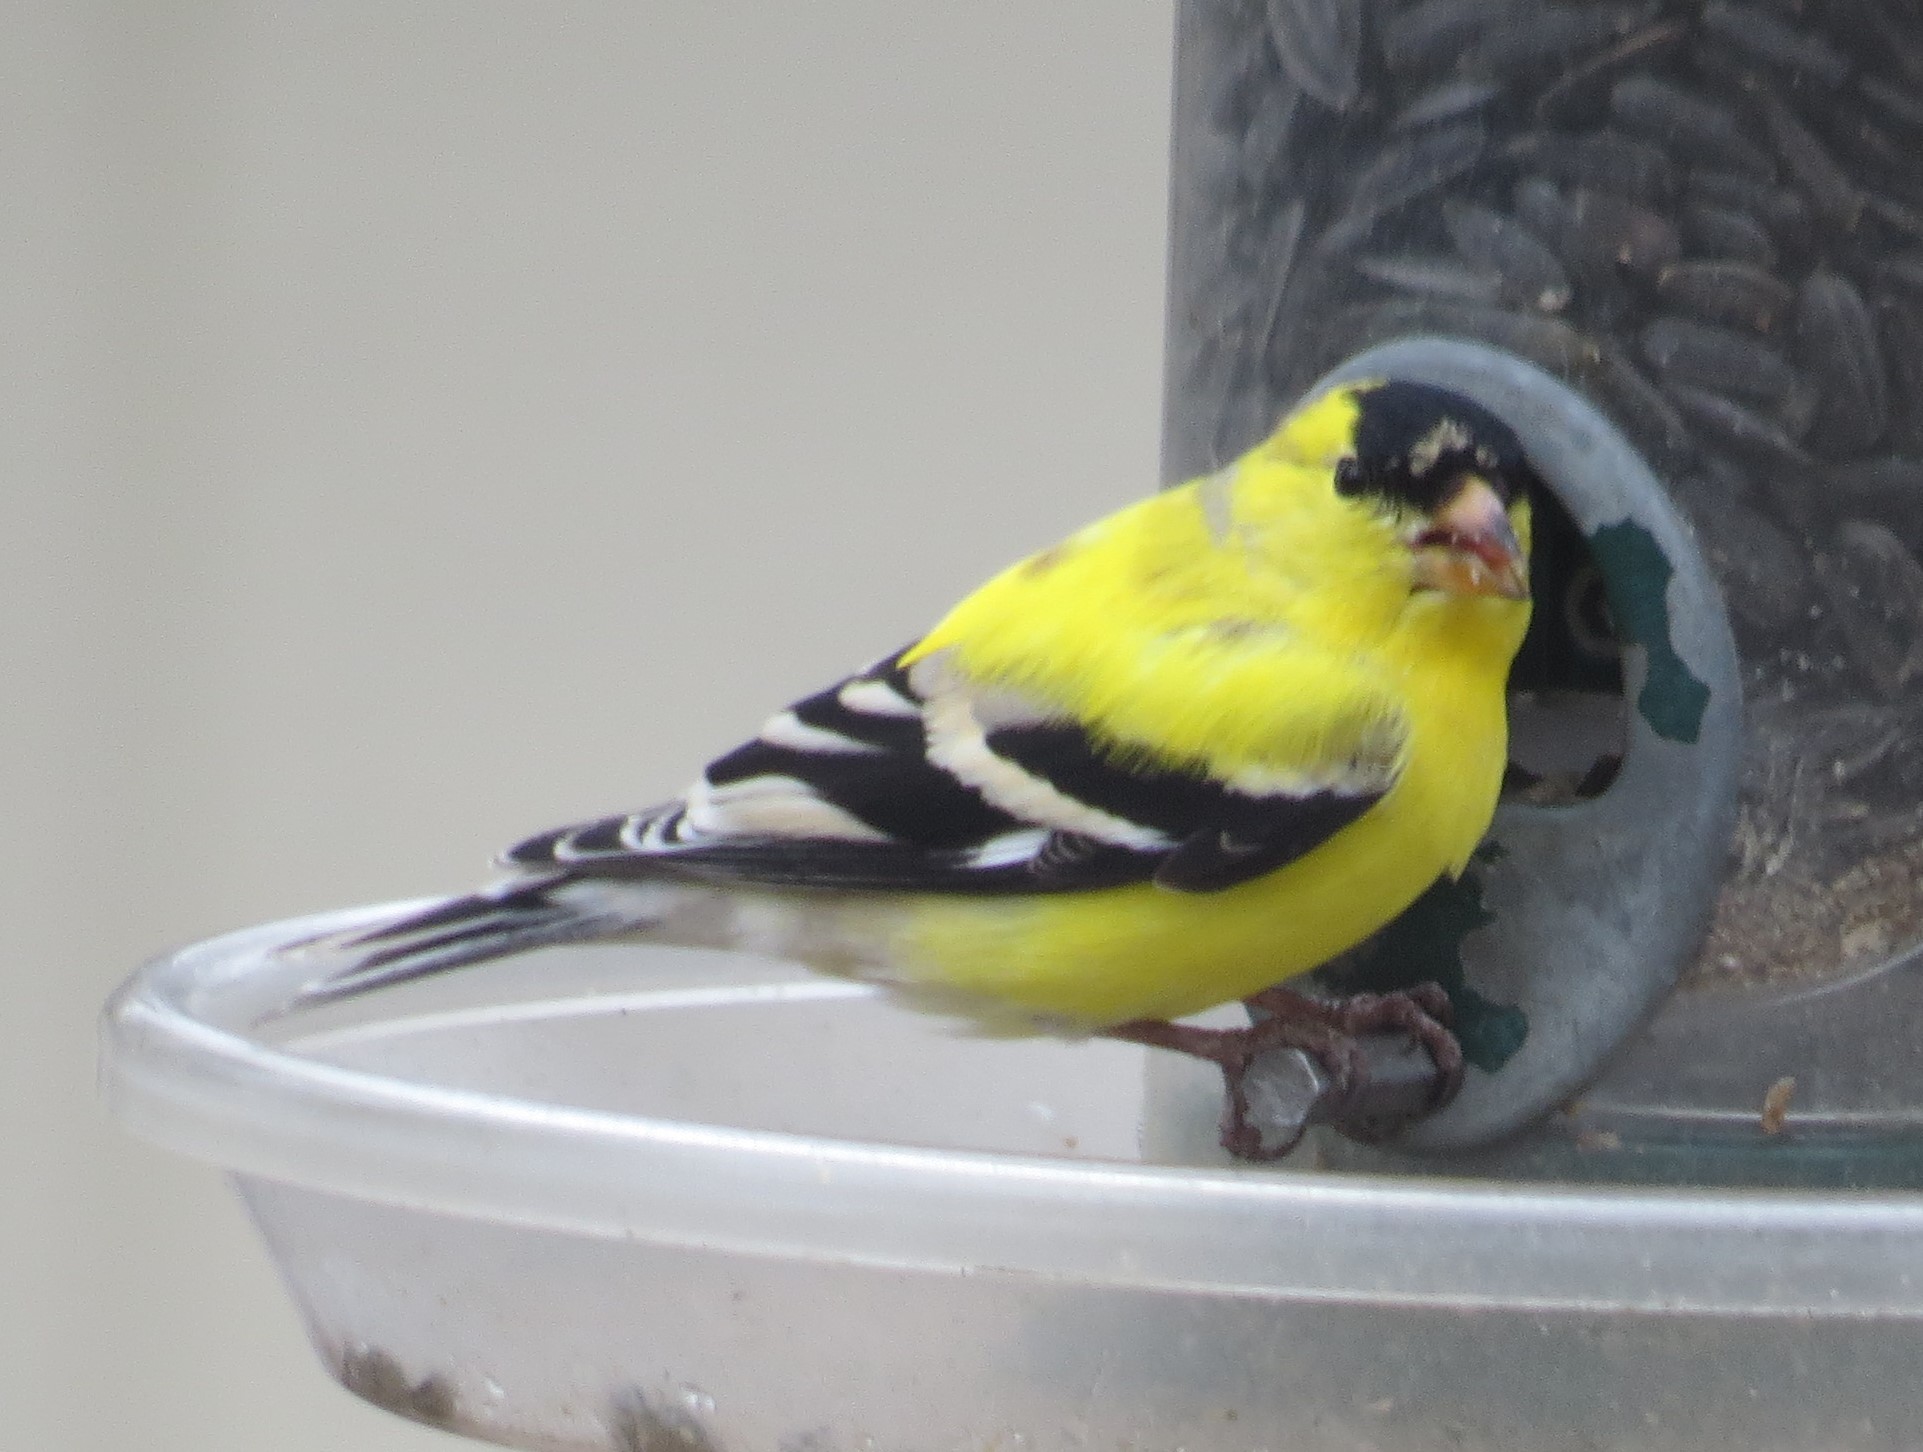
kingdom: Animalia
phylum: Chordata
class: Aves
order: Passeriformes
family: Fringillidae
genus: Spinus
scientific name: Spinus tristis
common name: American goldfinch
